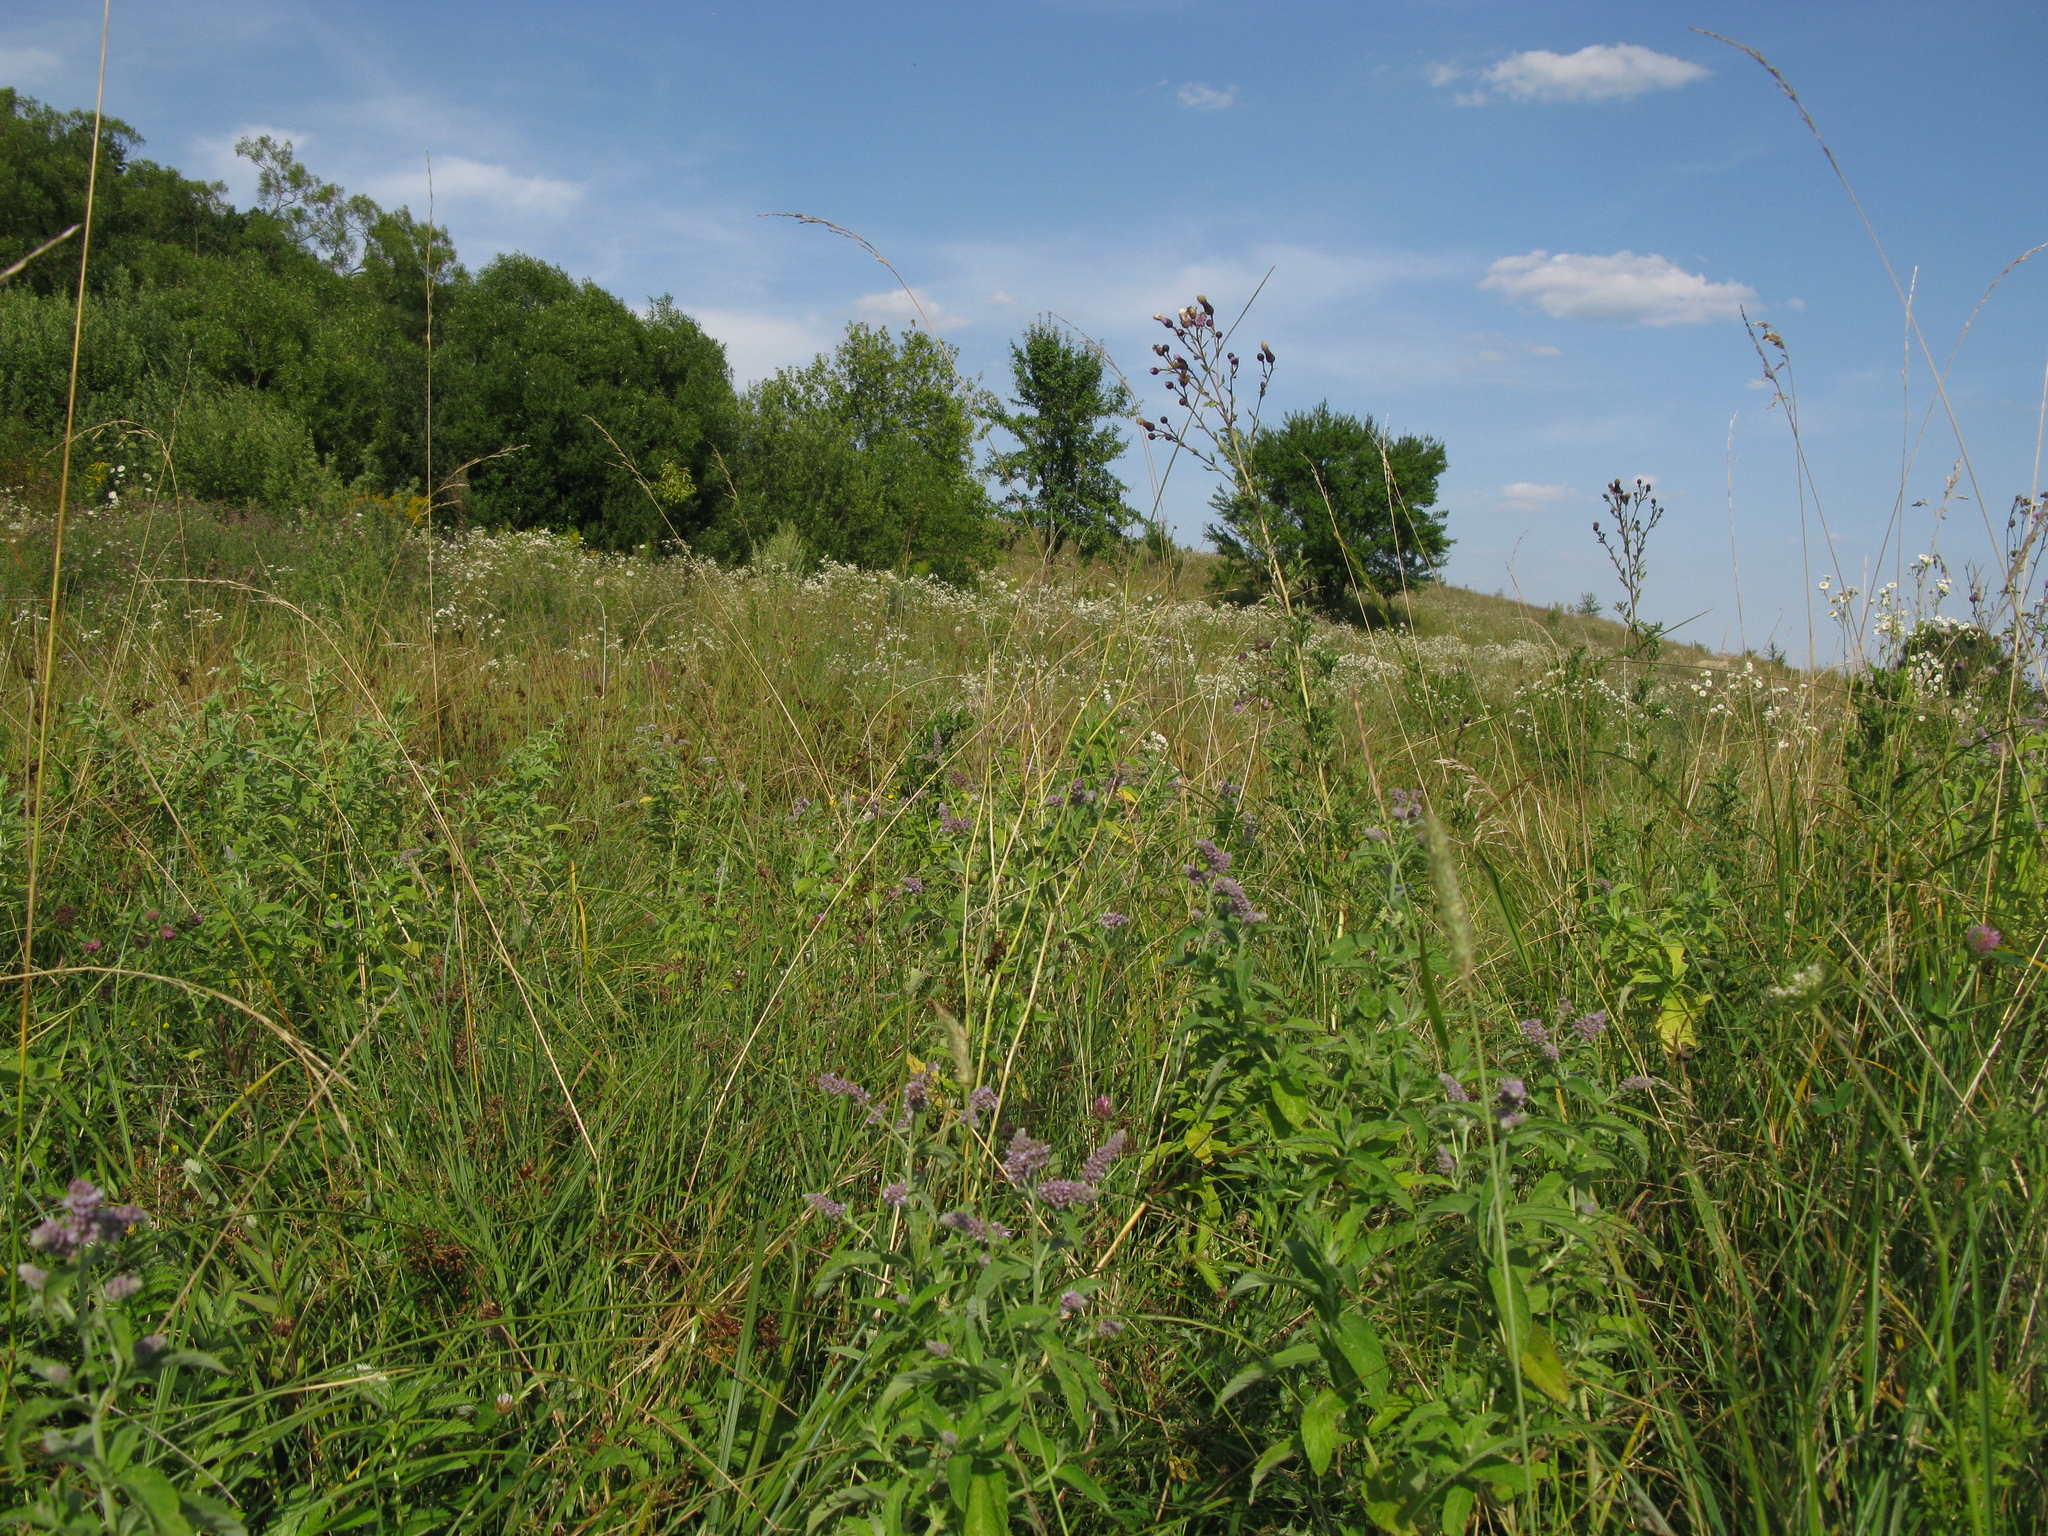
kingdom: Plantae
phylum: Tracheophyta
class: Magnoliopsida
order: Asterales
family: Asteraceae
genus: Cirsium
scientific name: Cirsium arvense
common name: Creeping thistle
